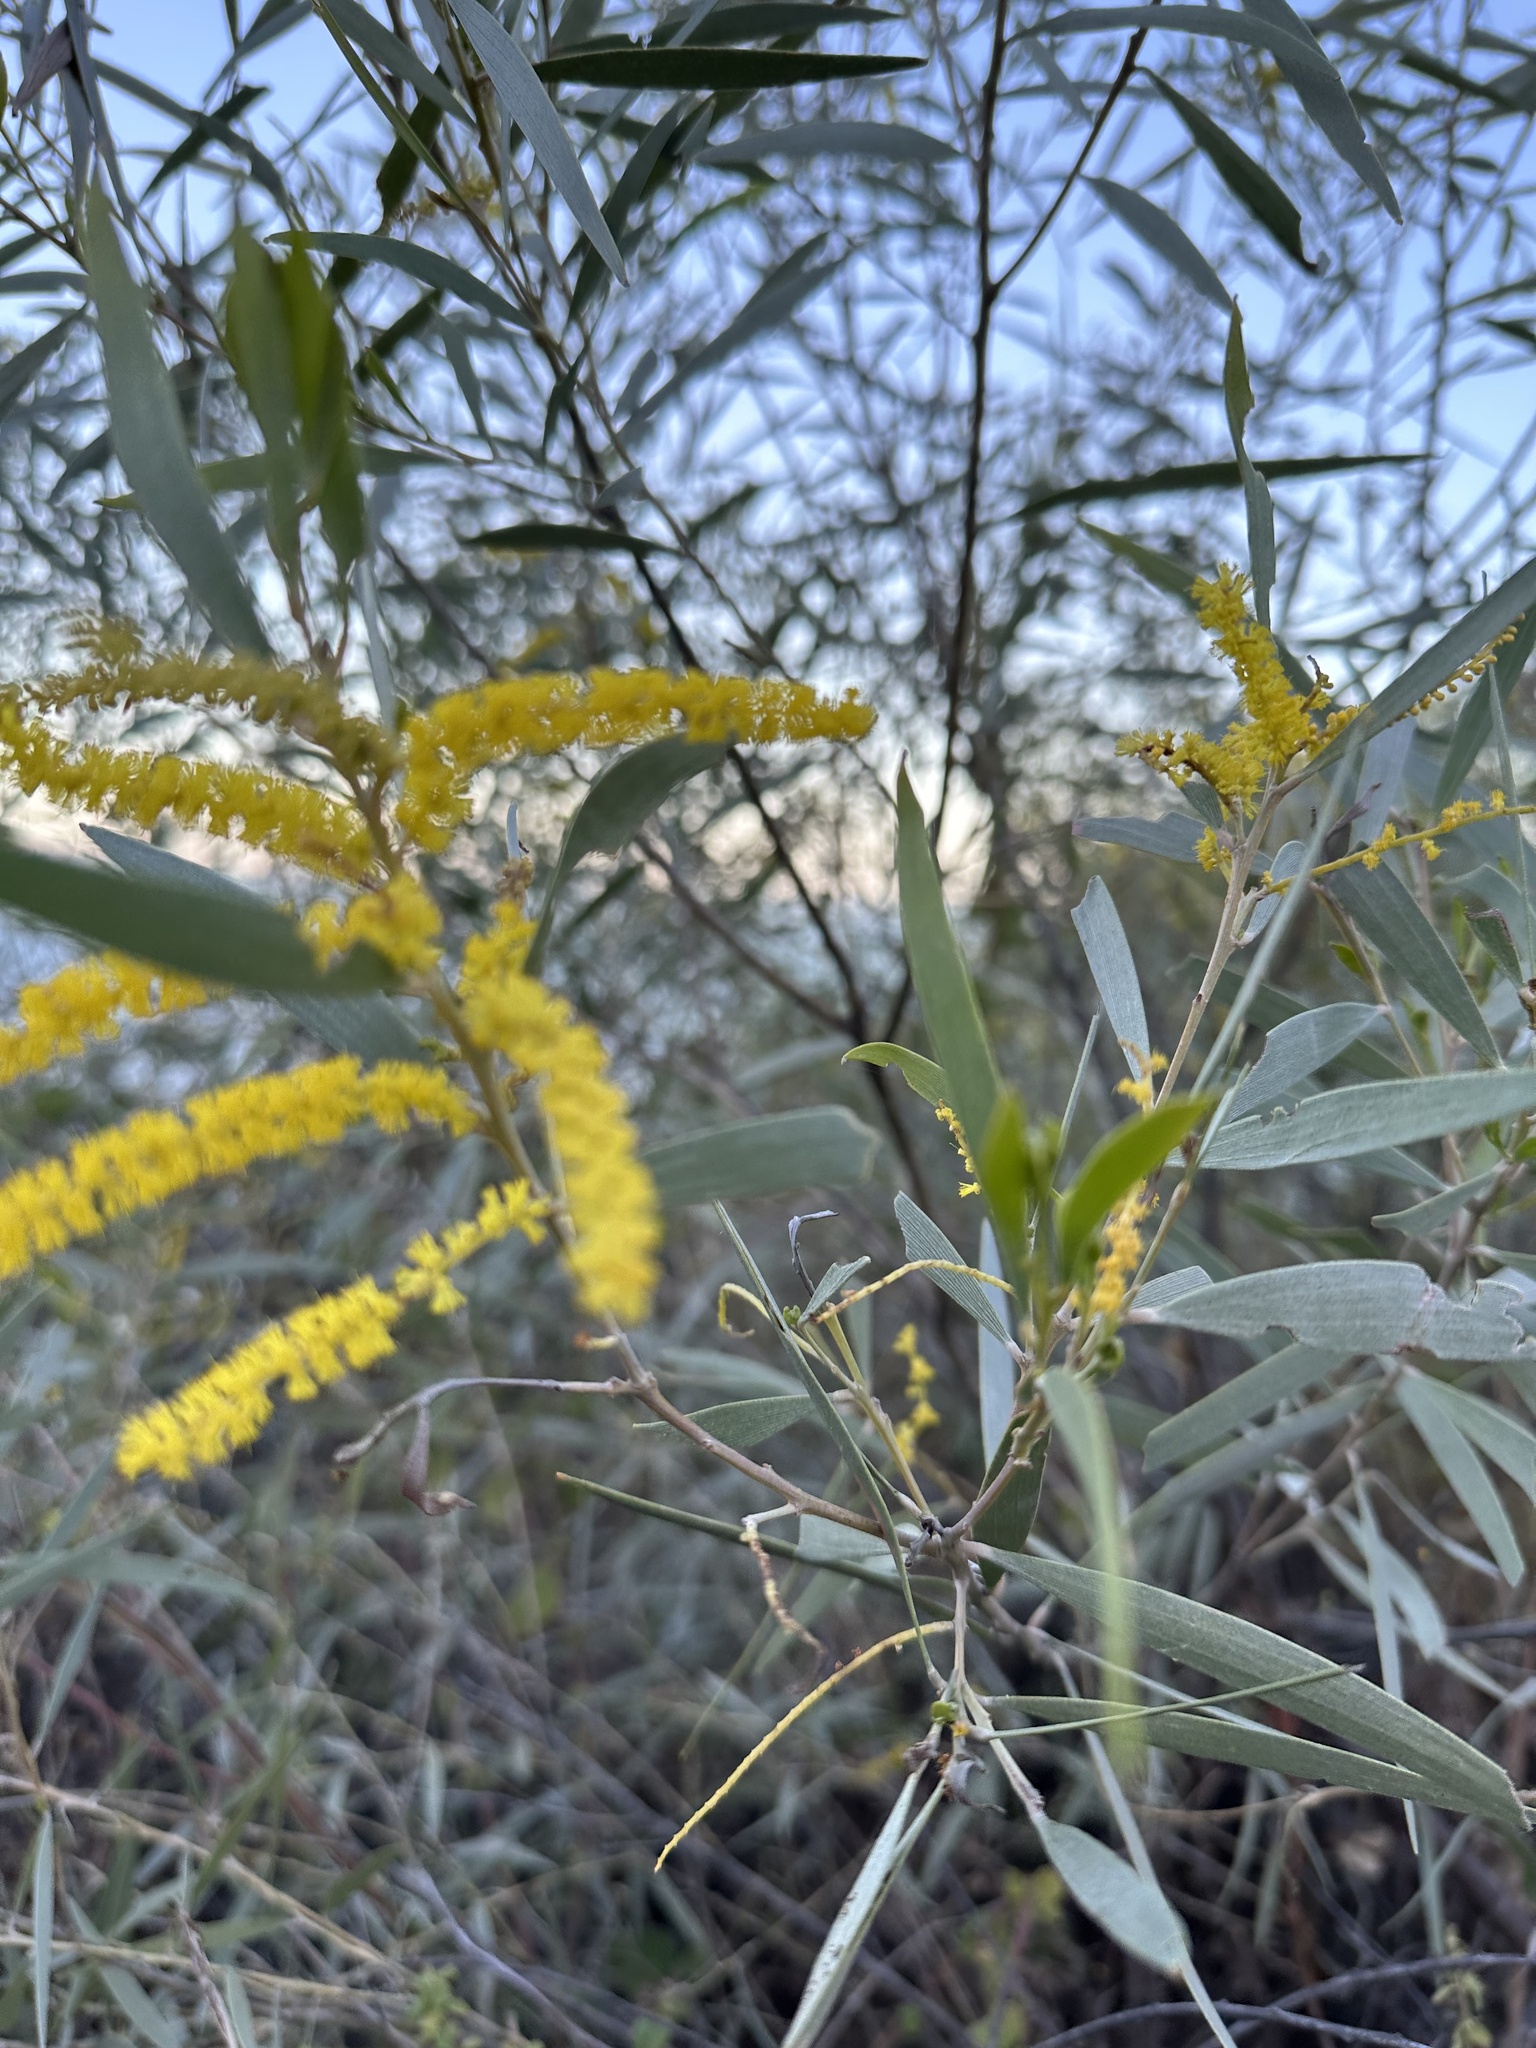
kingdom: Plantae
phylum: Tracheophyta
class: Magnoliopsida
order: Fabales
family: Fabaceae
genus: Acacia
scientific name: Acacia leptostachya
